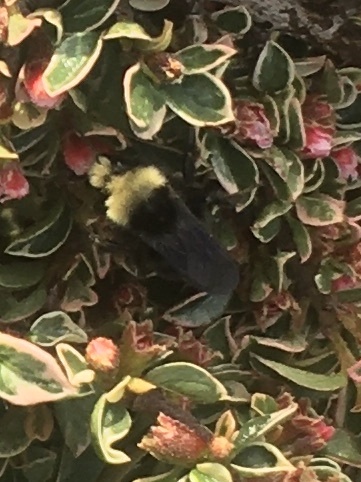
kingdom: Animalia
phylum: Arthropoda
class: Insecta
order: Hymenoptera
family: Apidae
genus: Bombus
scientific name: Bombus vosnesenskii
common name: Vosnesensky bumble bee
